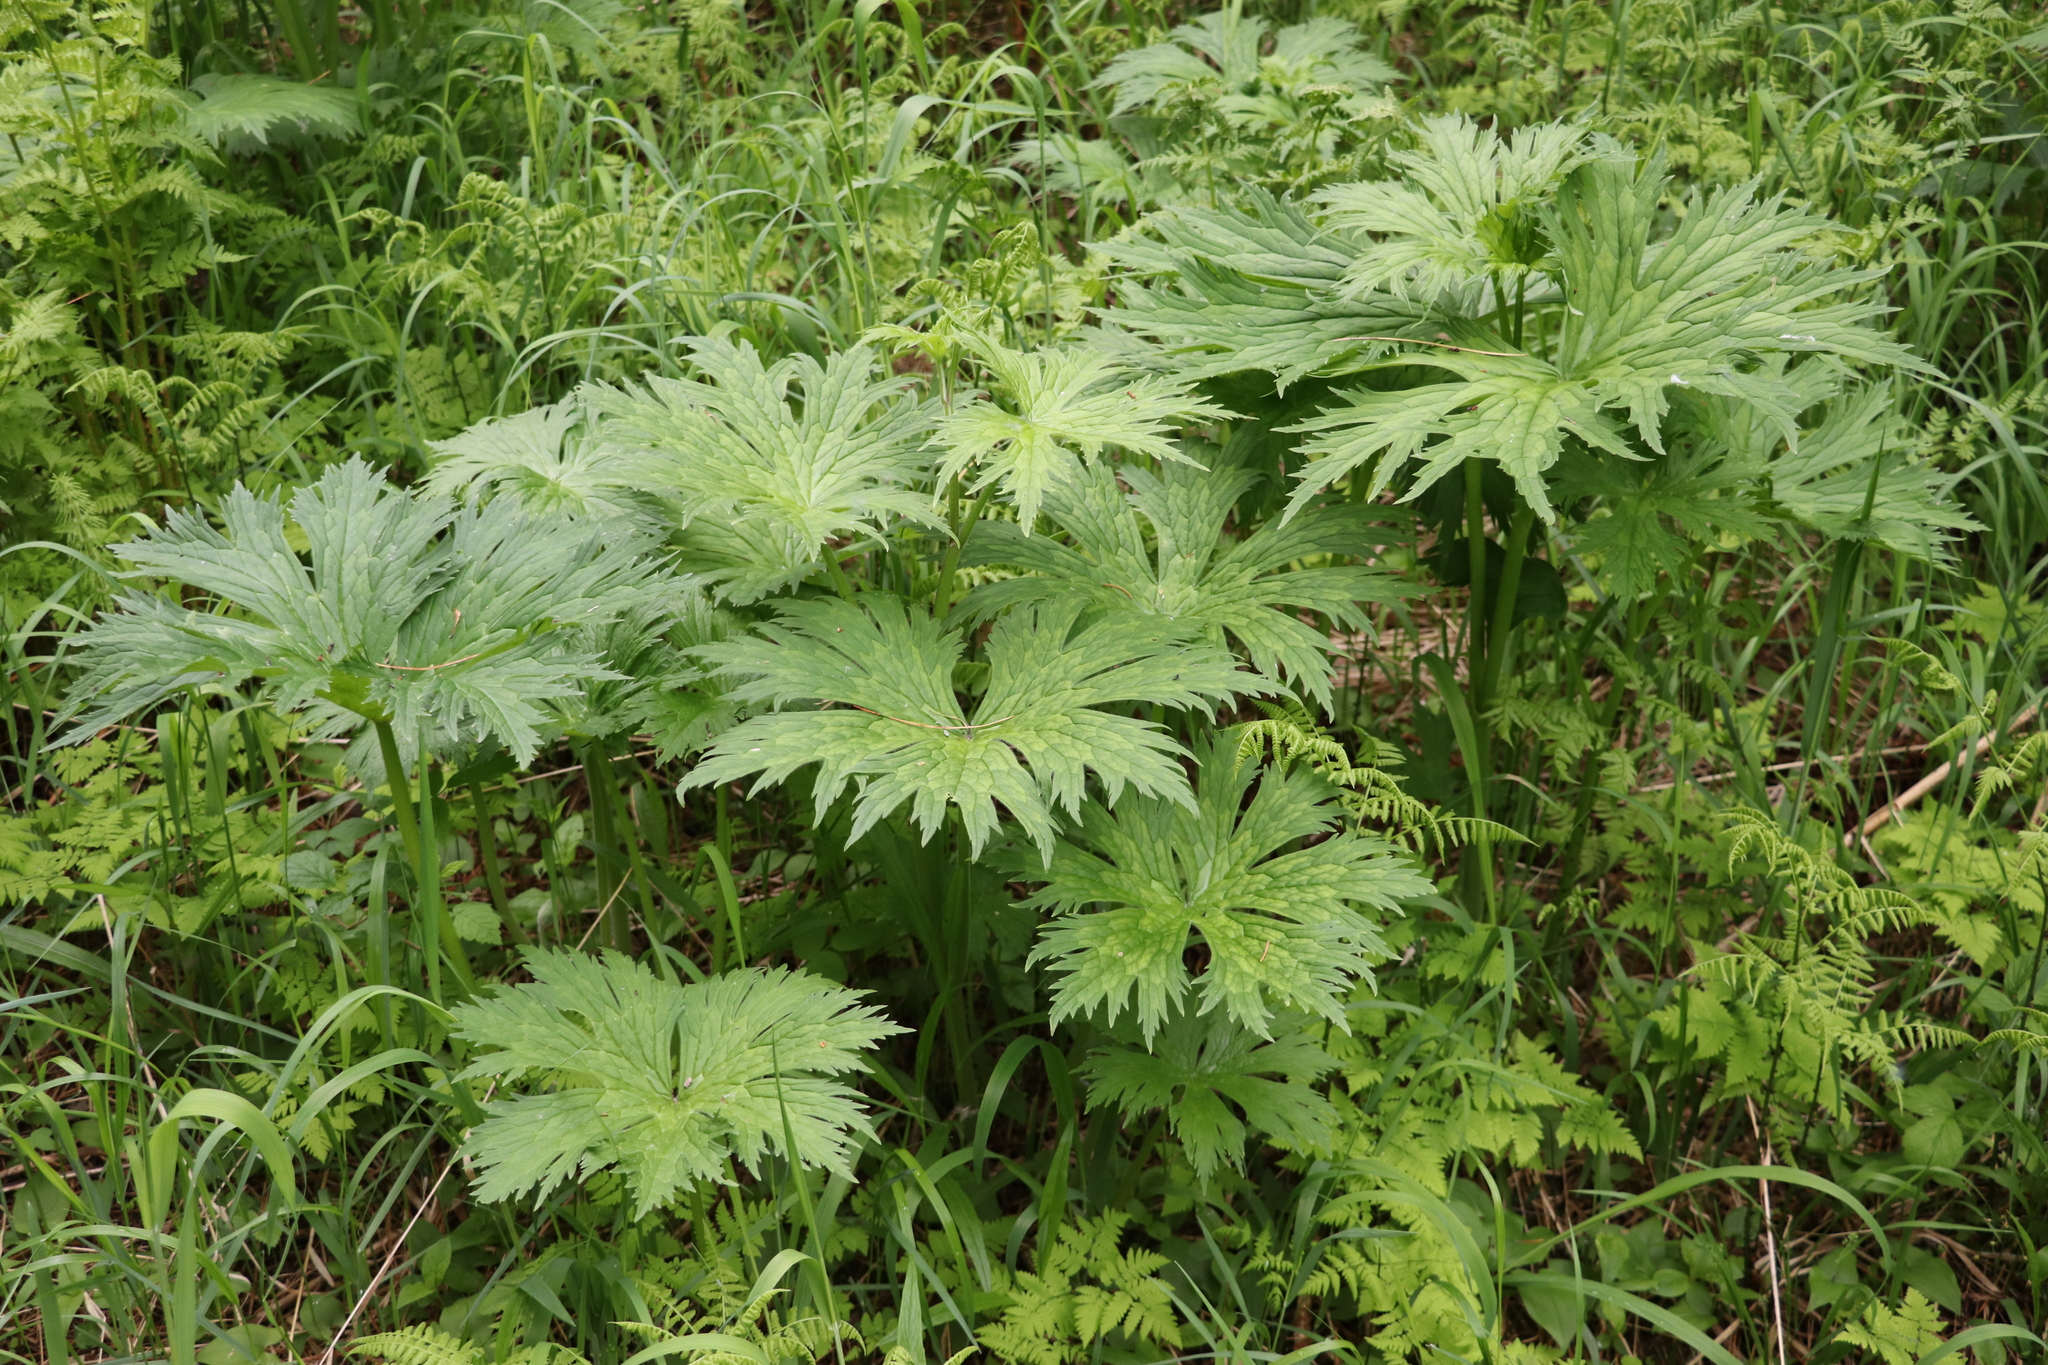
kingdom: Plantae
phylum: Tracheophyta
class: Magnoliopsida
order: Ranunculales
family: Ranunculaceae
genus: Aconitum
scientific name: Aconitum septentrionale
